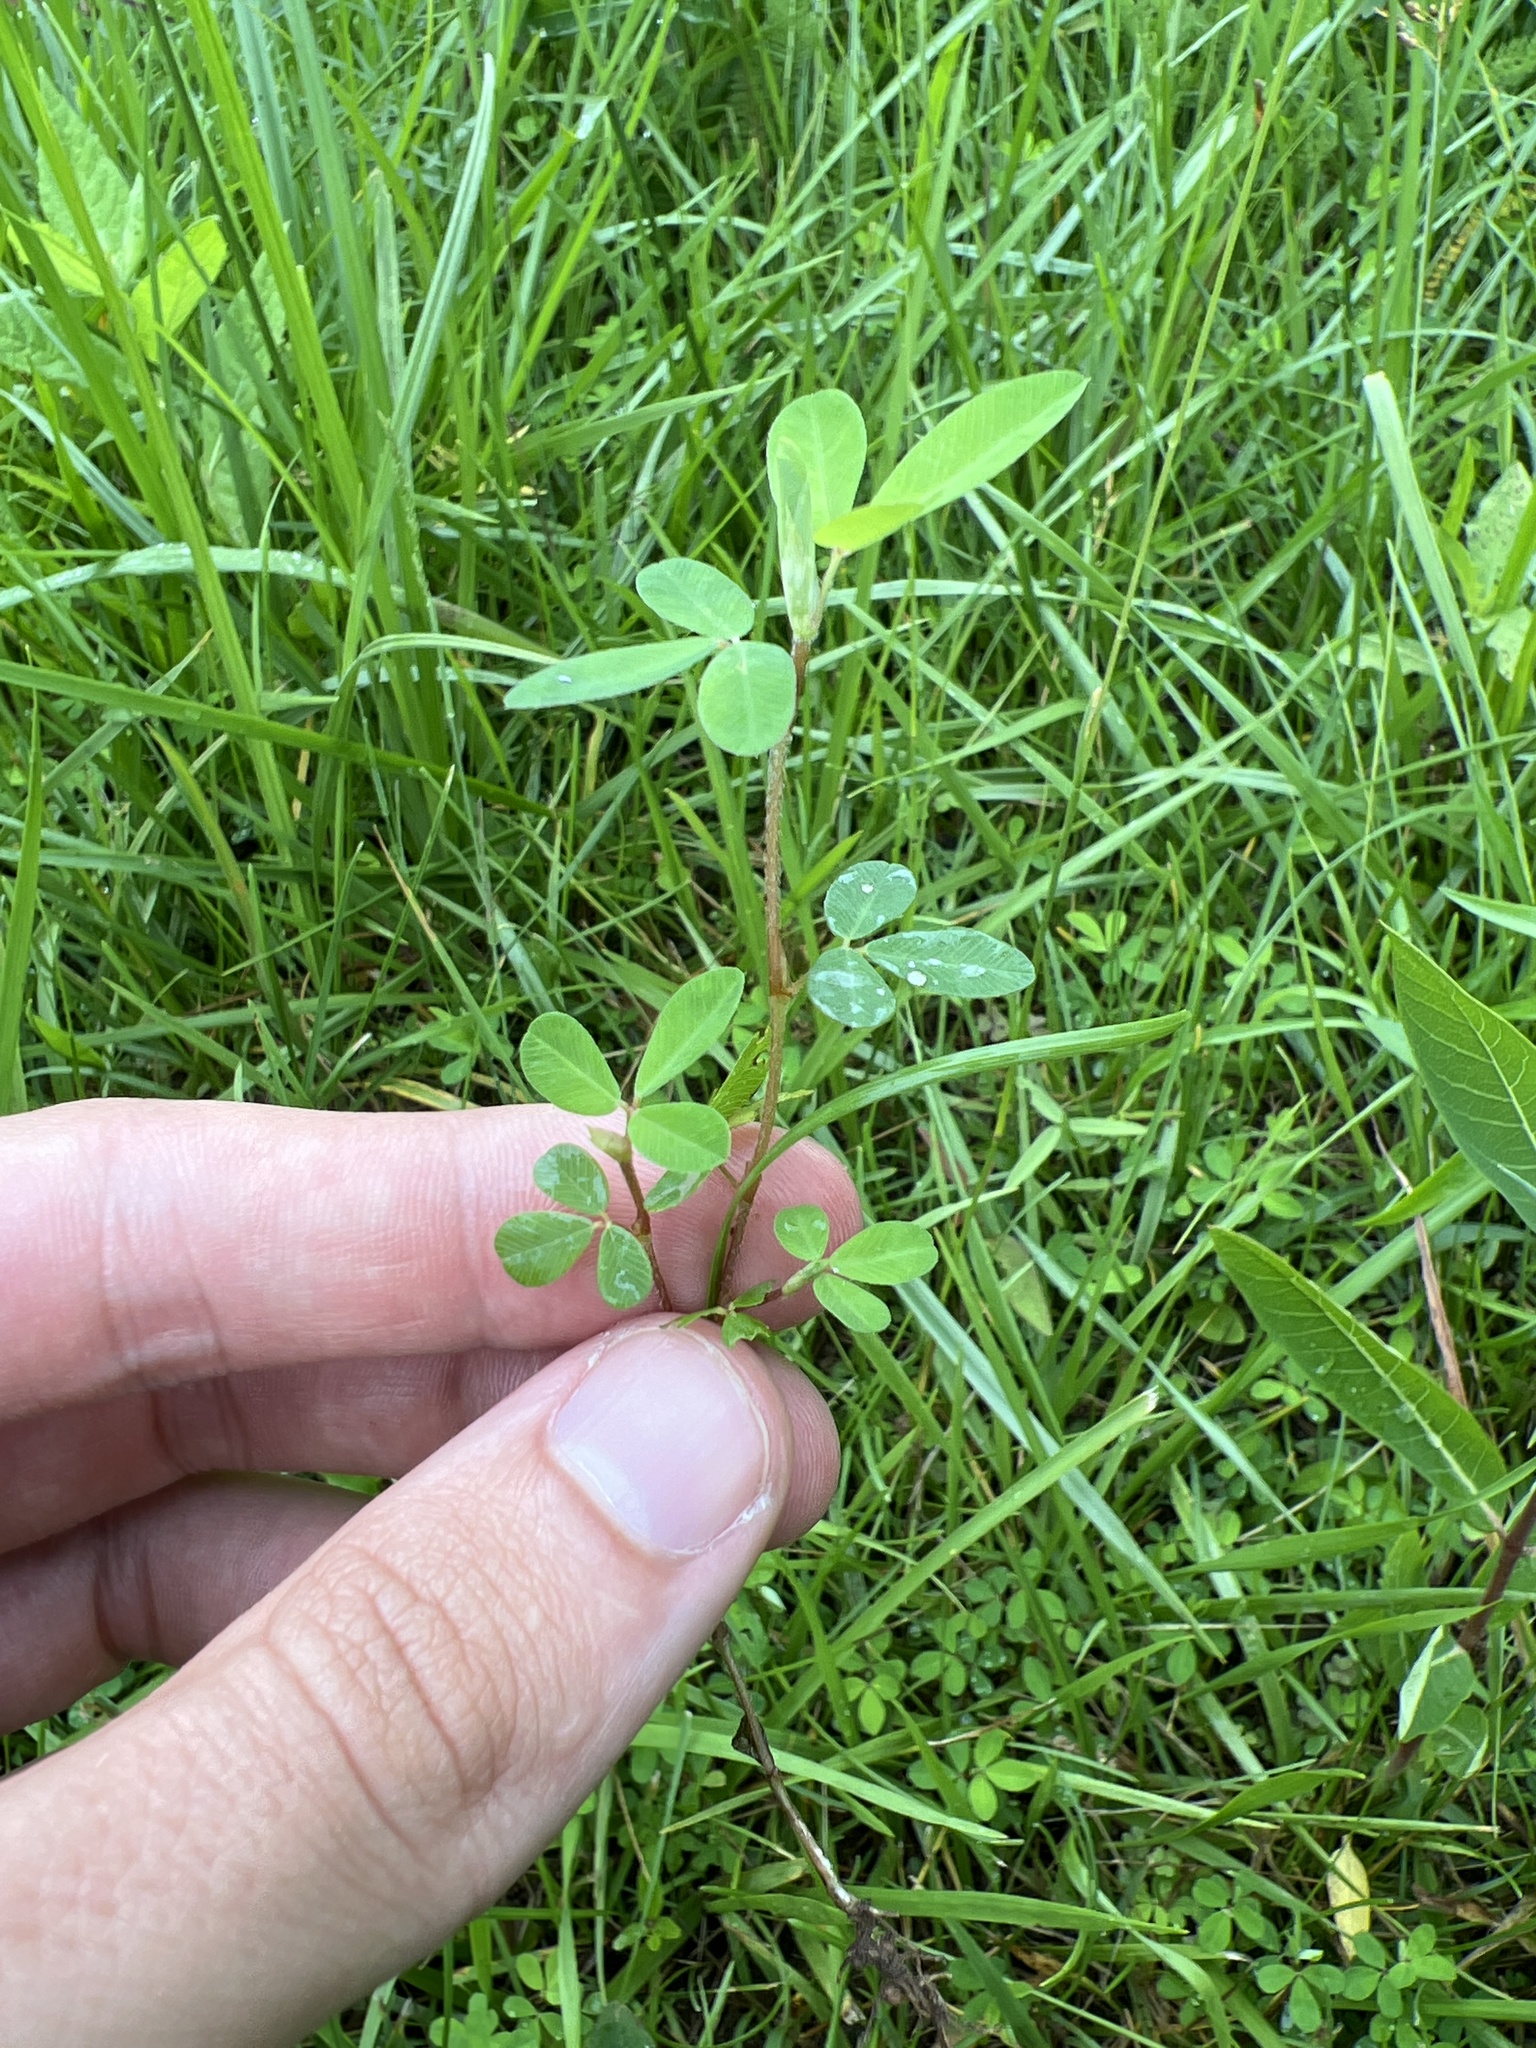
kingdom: Plantae
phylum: Tracheophyta
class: Magnoliopsida
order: Fabales
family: Fabaceae
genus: Kummerowia
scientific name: Kummerowia striata
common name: Japanese clover
